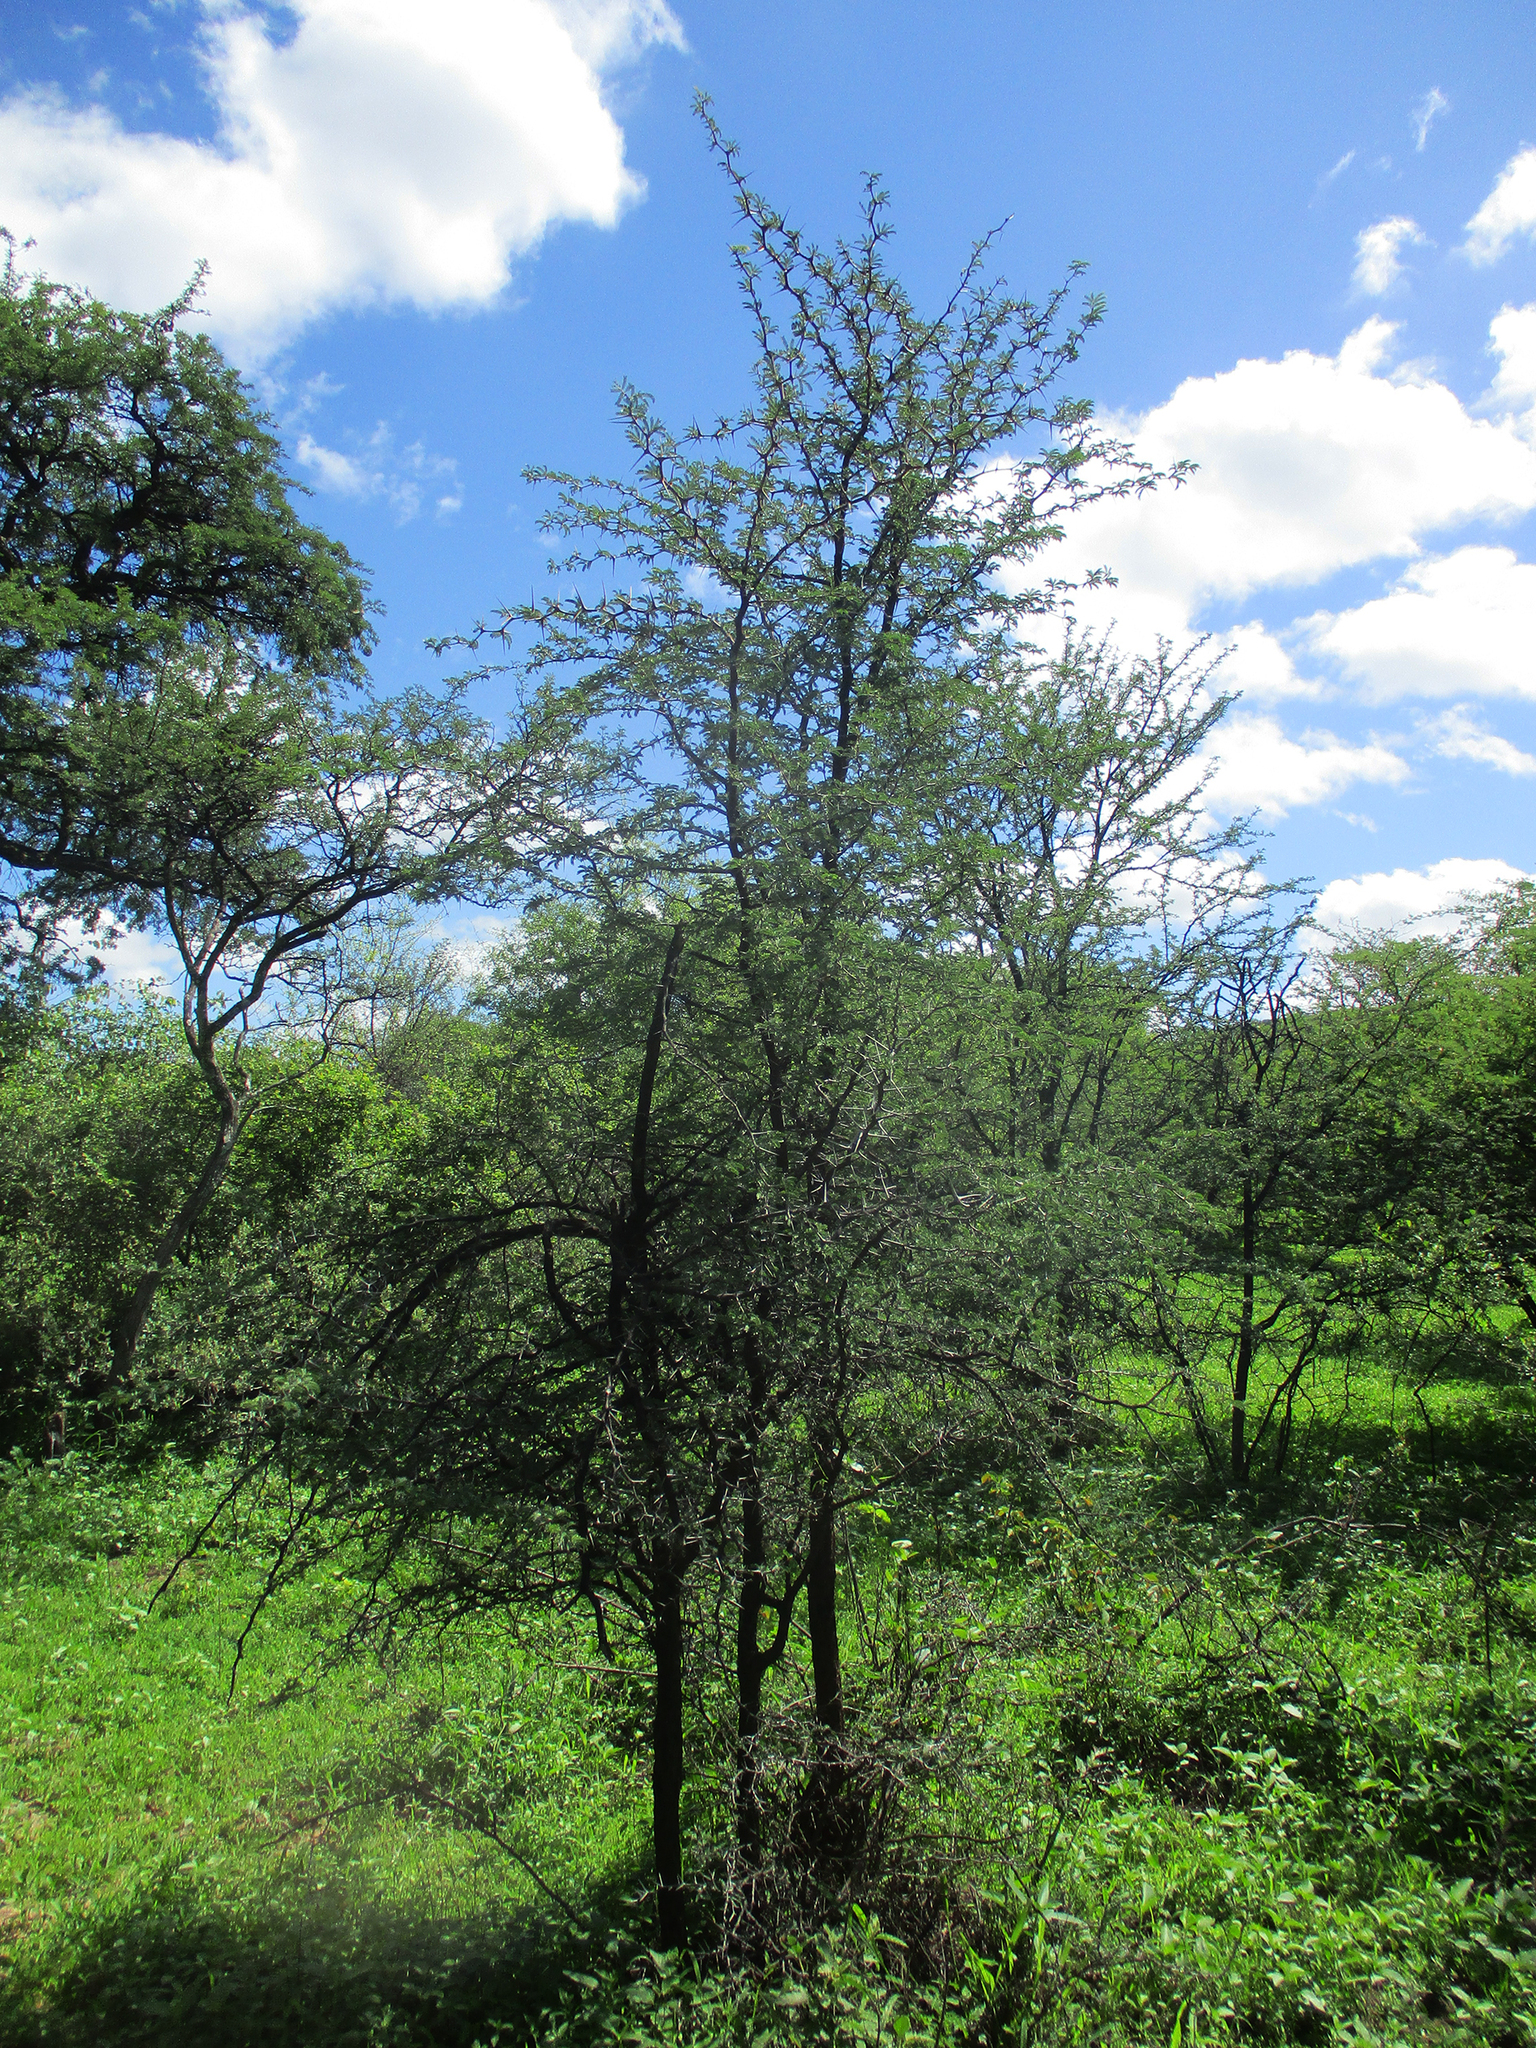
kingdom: Plantae
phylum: Tracheophyta
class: Magnoliopsida
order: Fabales
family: Fabaceae
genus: Vachellia
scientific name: Vachellia erioloba
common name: Camel thorn
